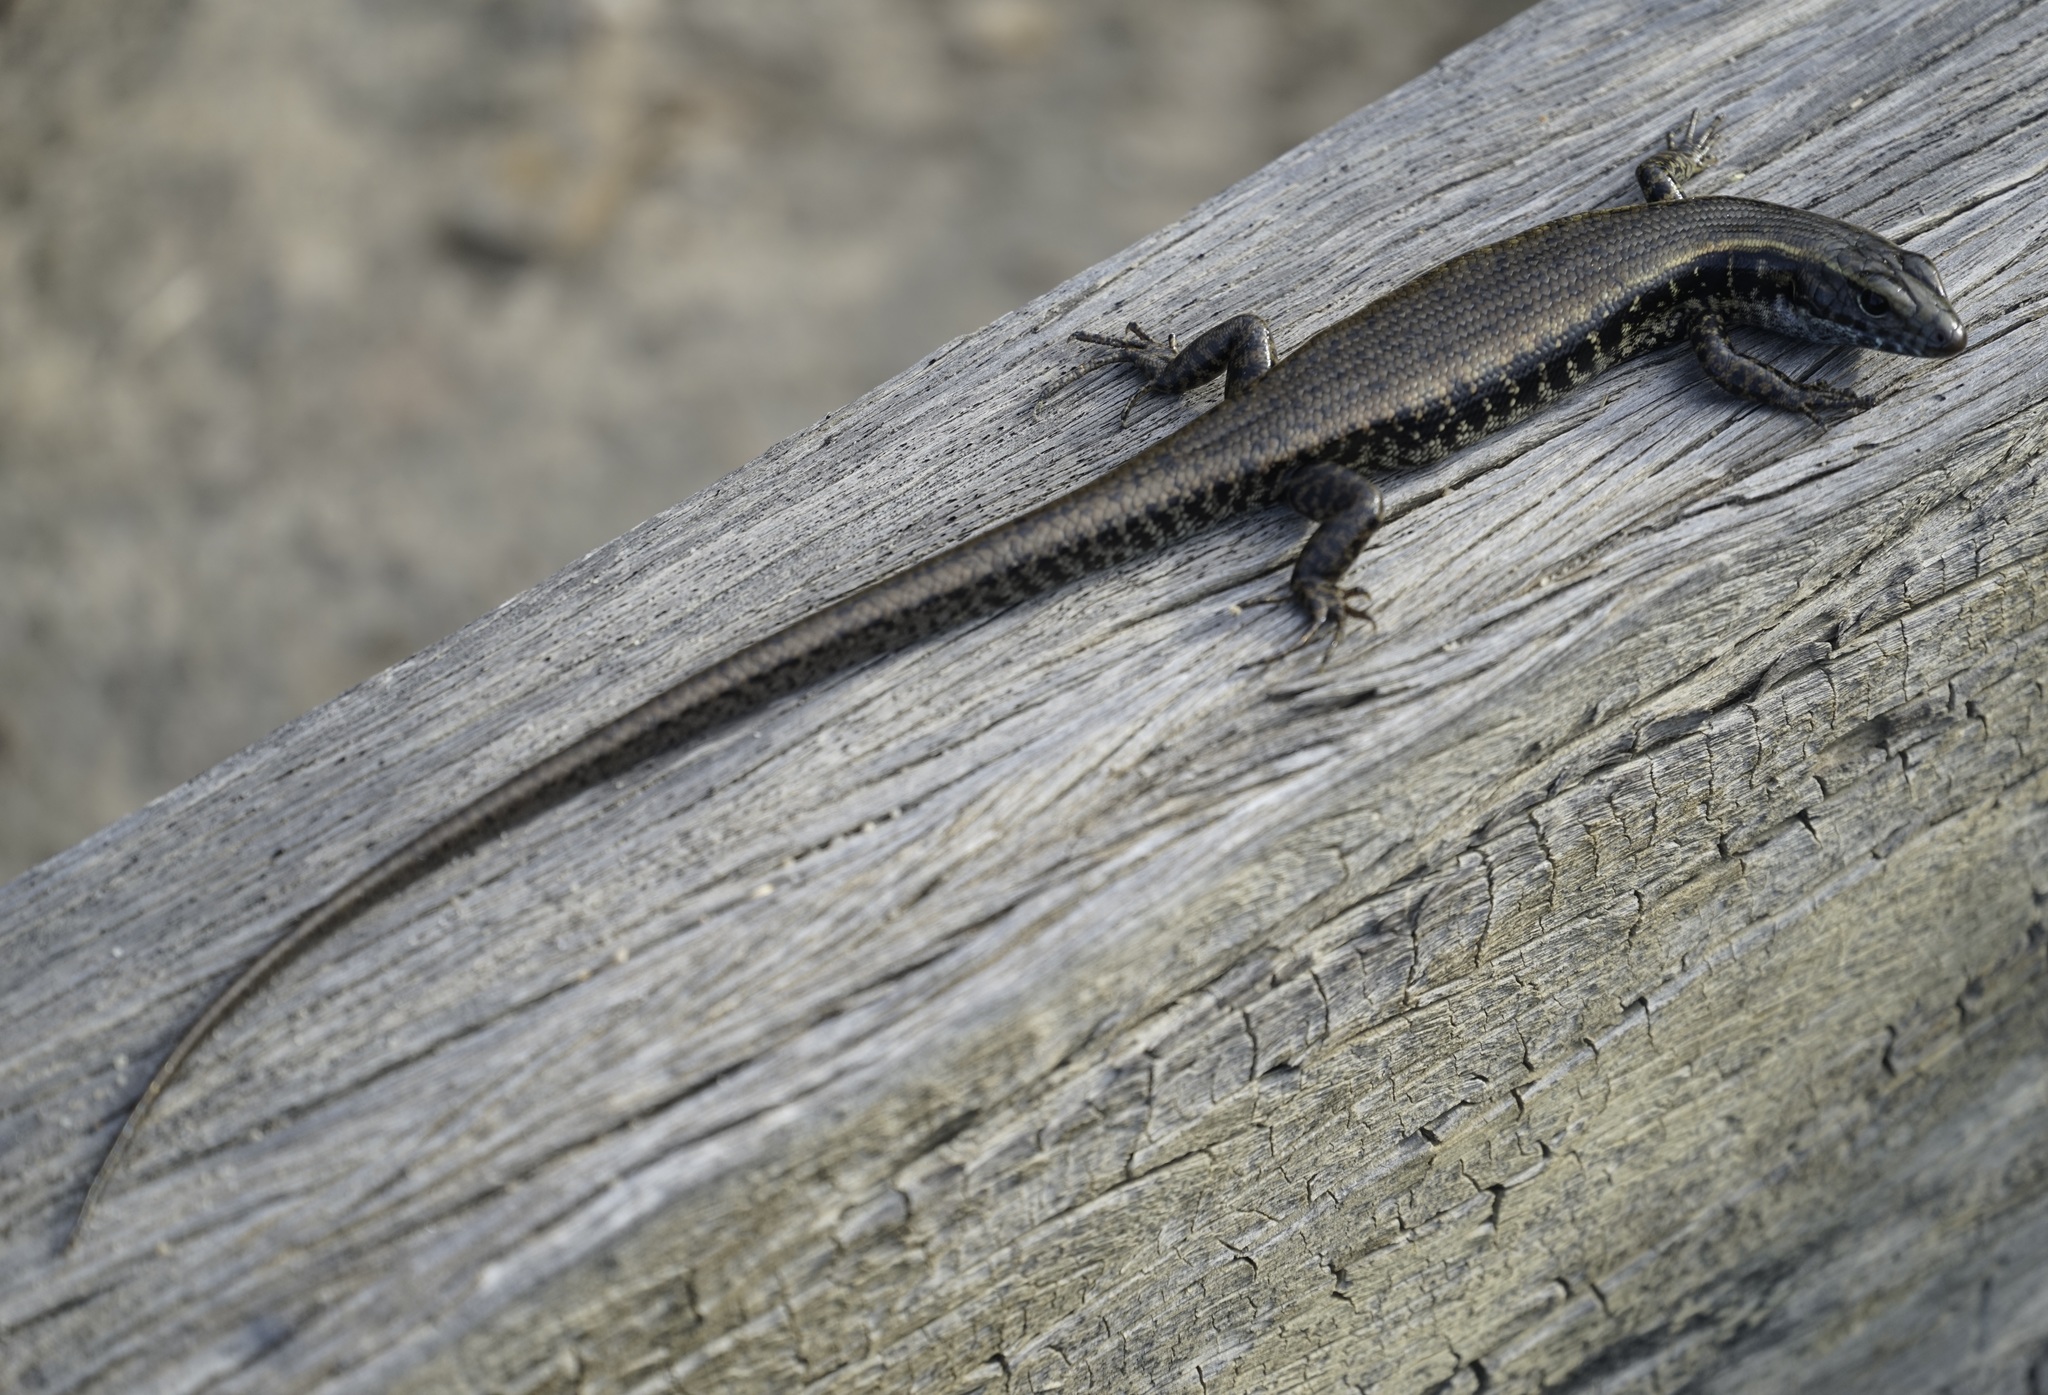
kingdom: Animalia
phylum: Chordata
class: Squamata
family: Scincidae
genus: Eulamprus
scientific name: Eulamprus quoyii
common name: Eastern water skink
